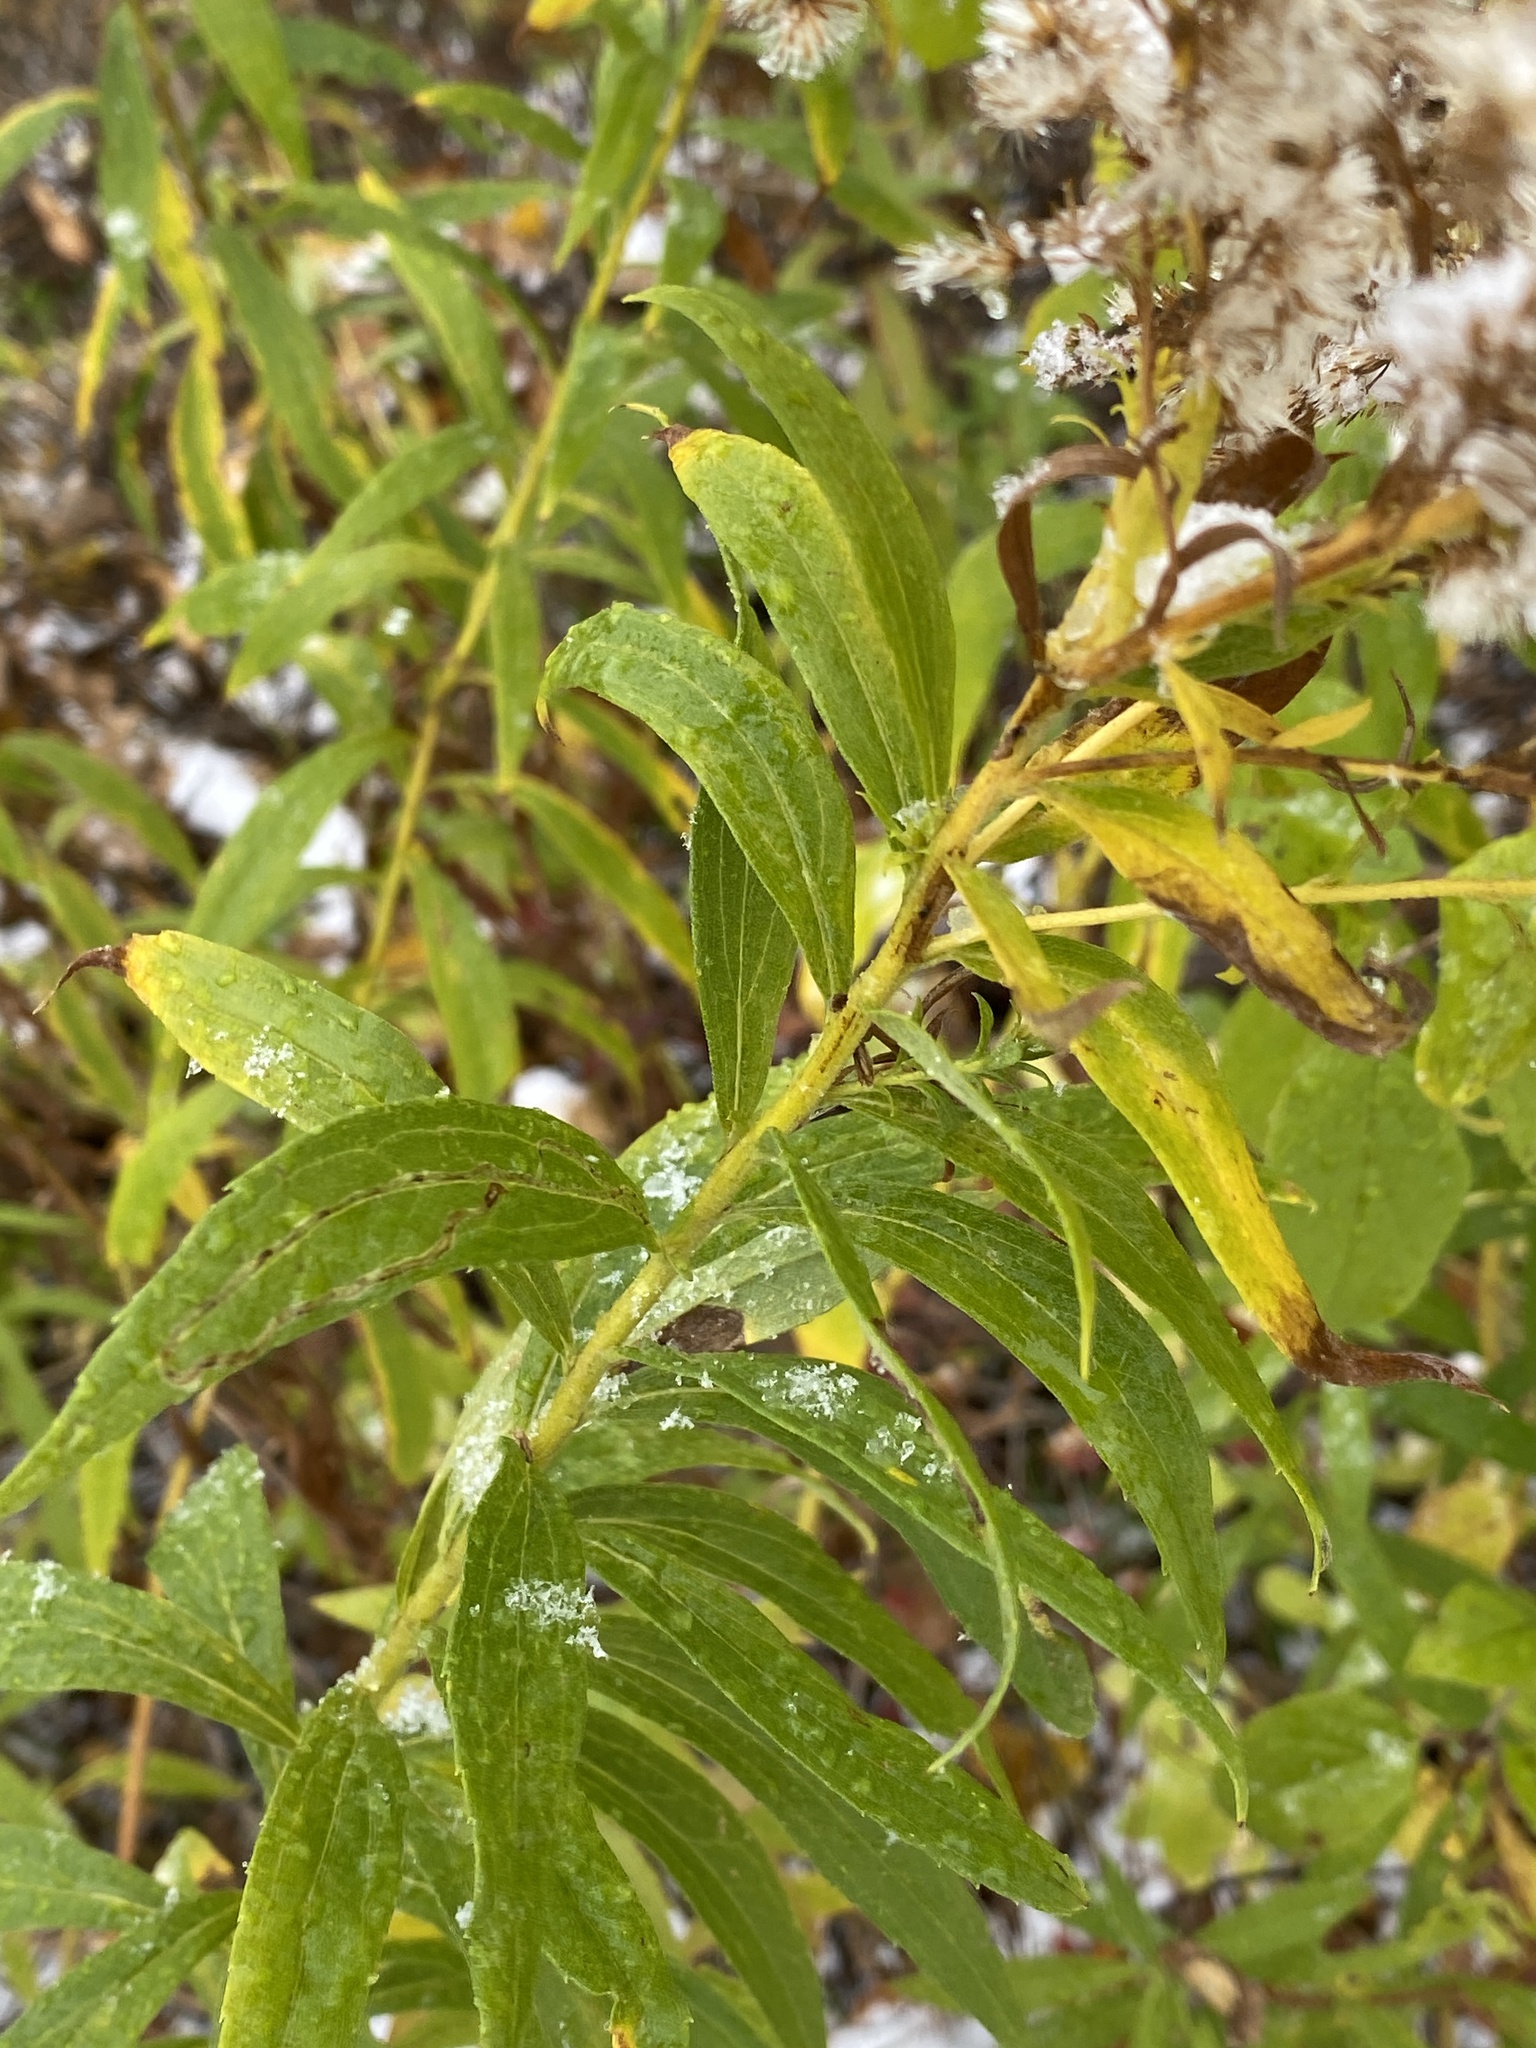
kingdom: Plantae
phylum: Tracheophyta
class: Magnoliopsida
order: Asterales
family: Asteraceae
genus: Solidago
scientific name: Solidago altissima
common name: Late goldenrod
